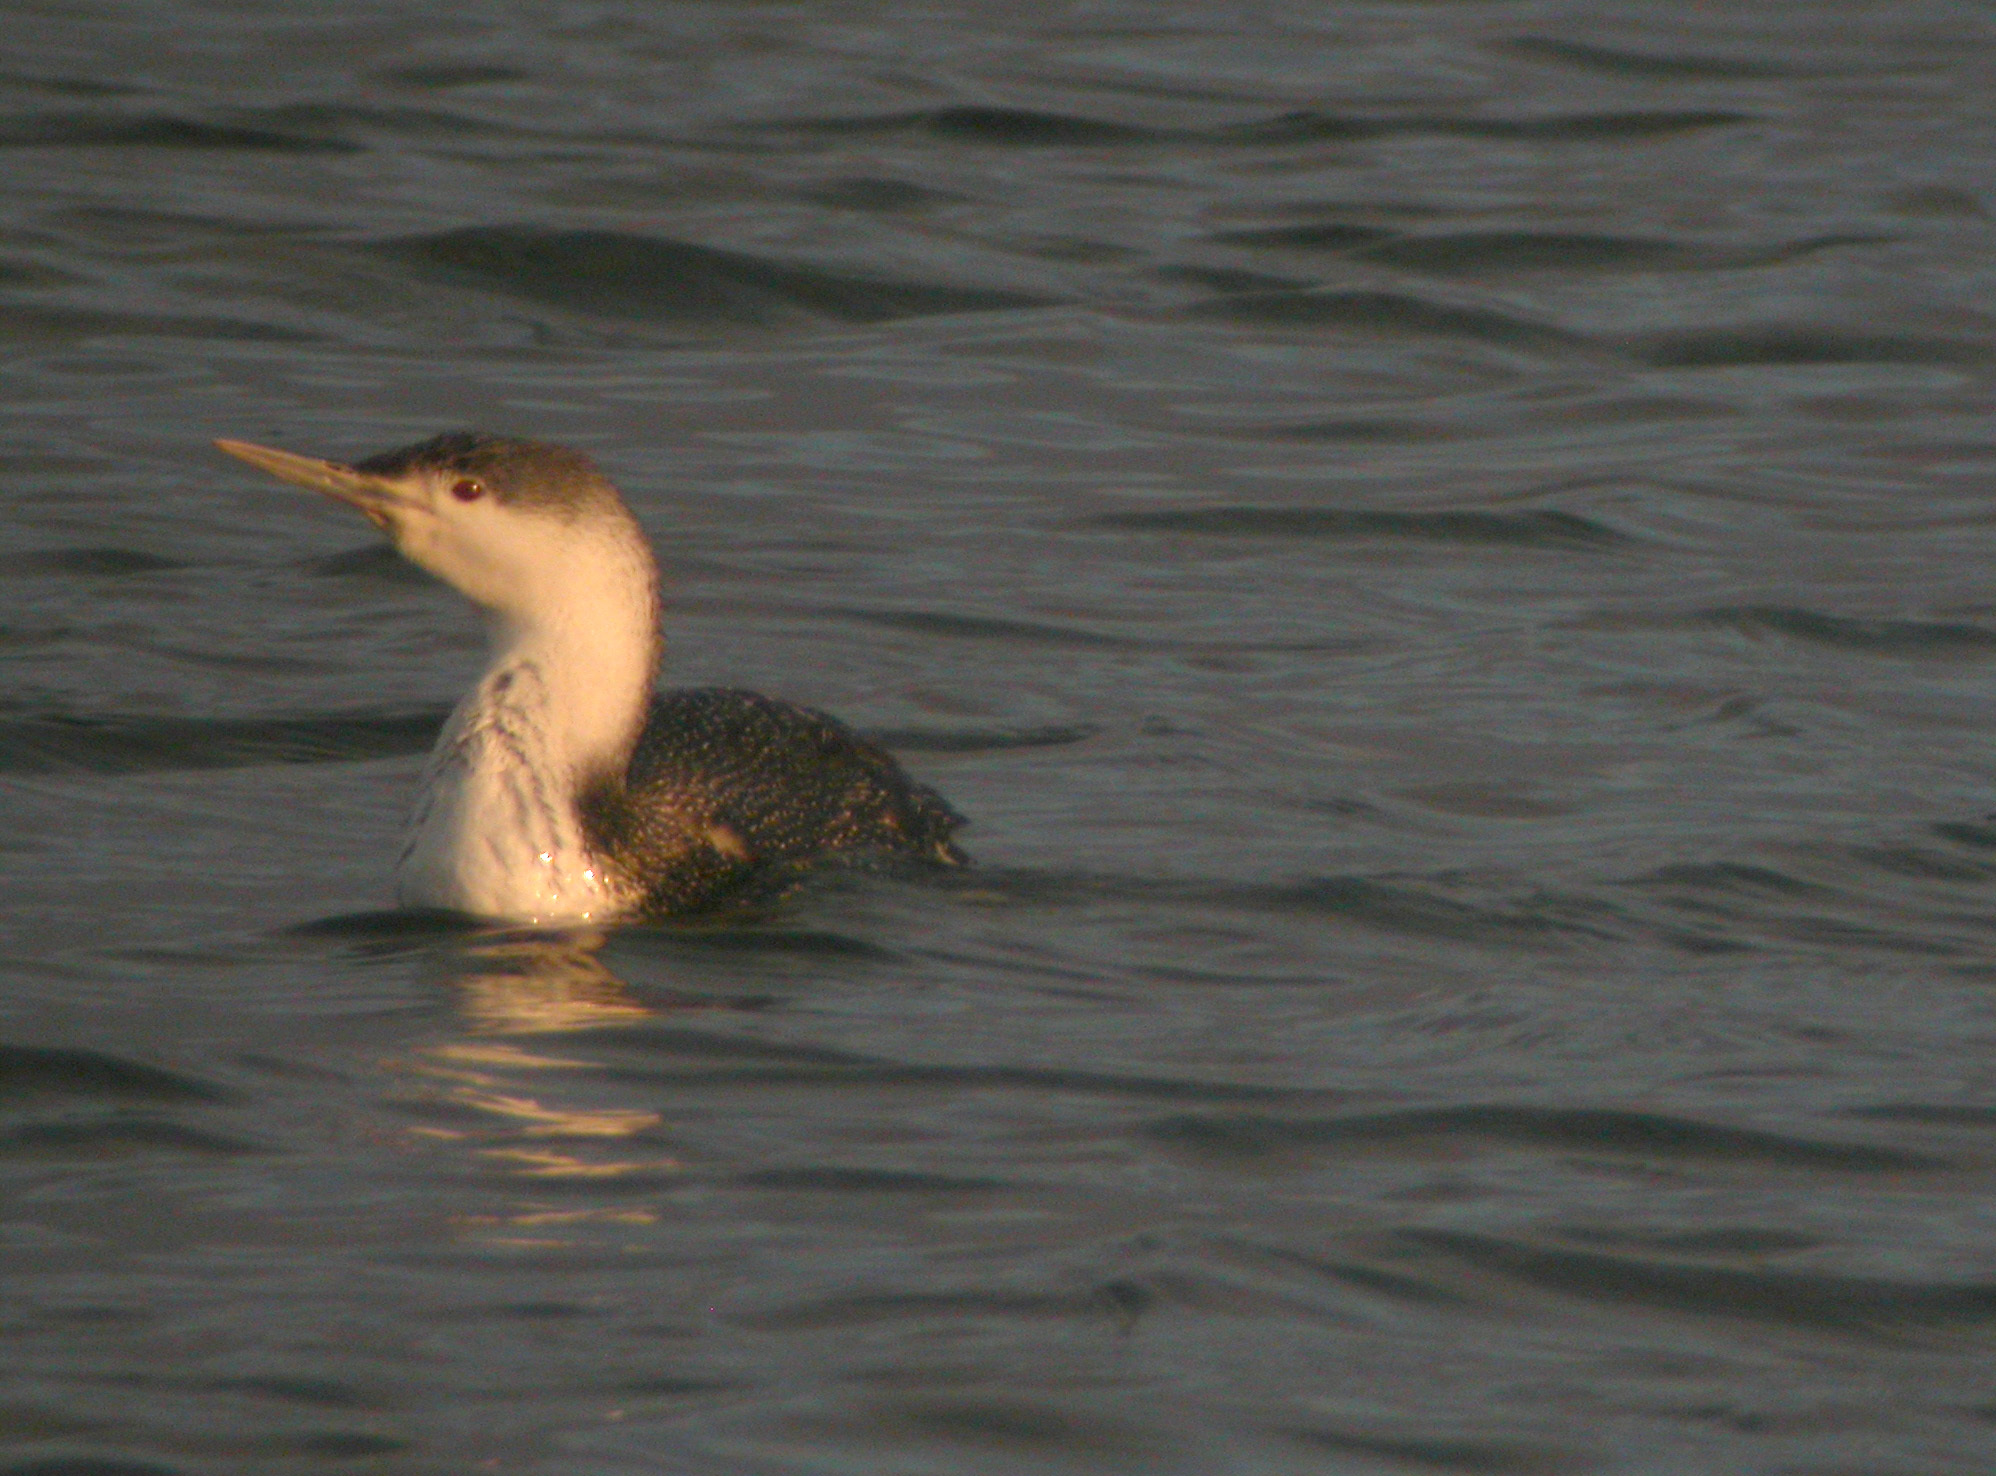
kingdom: Animalia
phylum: Chordata
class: Aves
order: Gaviiformes
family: Gaviidae
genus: Gavia
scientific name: Gavia stellata
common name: Red-throated loon
